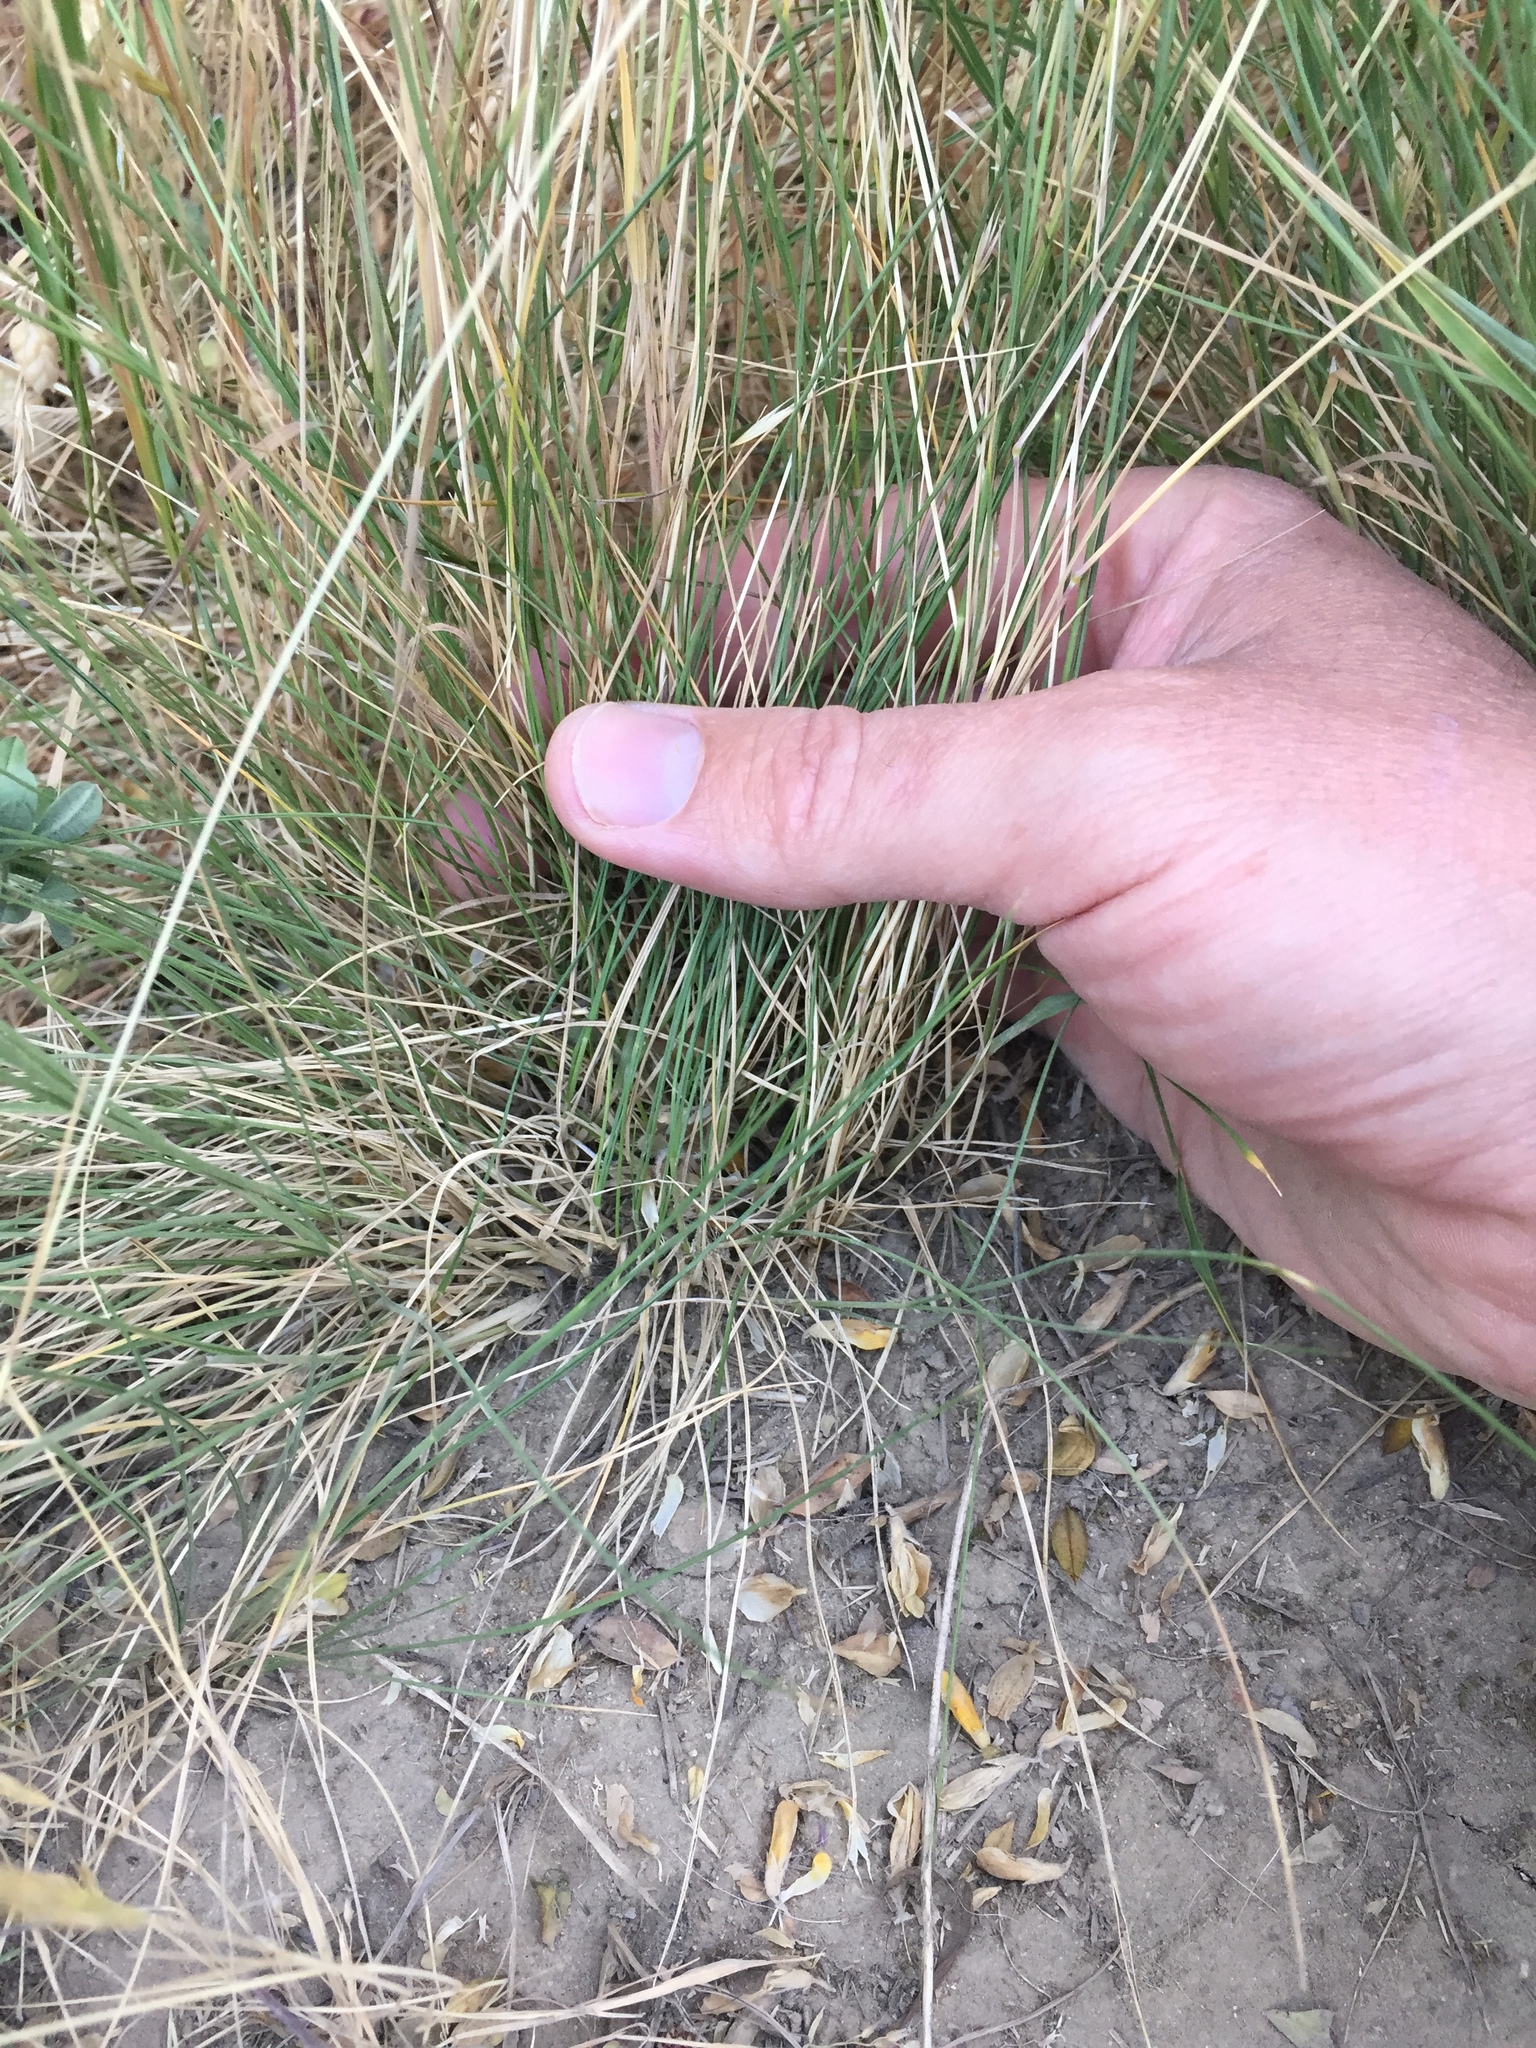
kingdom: Plantae
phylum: Tracheophyta
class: Liliopsida
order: Poales
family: Poaceae
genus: Nassella
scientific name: Nassella lepida
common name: Foothill needlegrass
